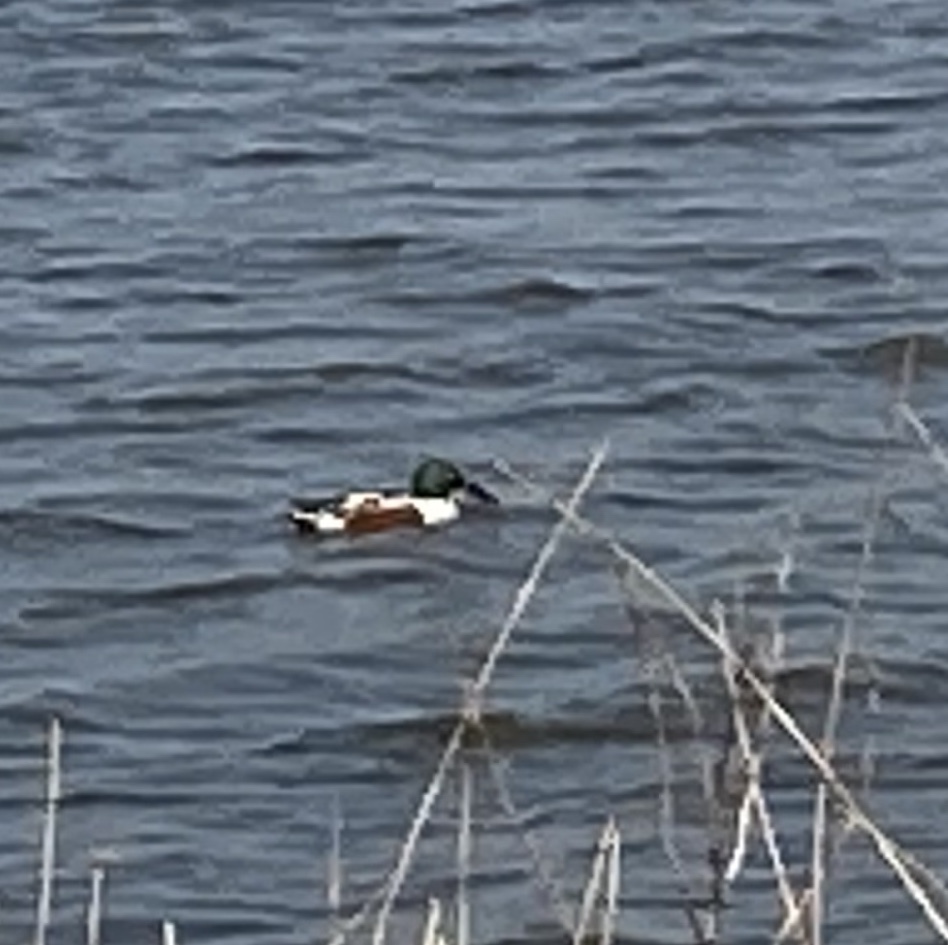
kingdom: Animalia
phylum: Chordata
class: Aves
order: Anseriformes
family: Anatidae
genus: Spatula
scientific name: Spatula clypeata
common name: Northern shoveler
